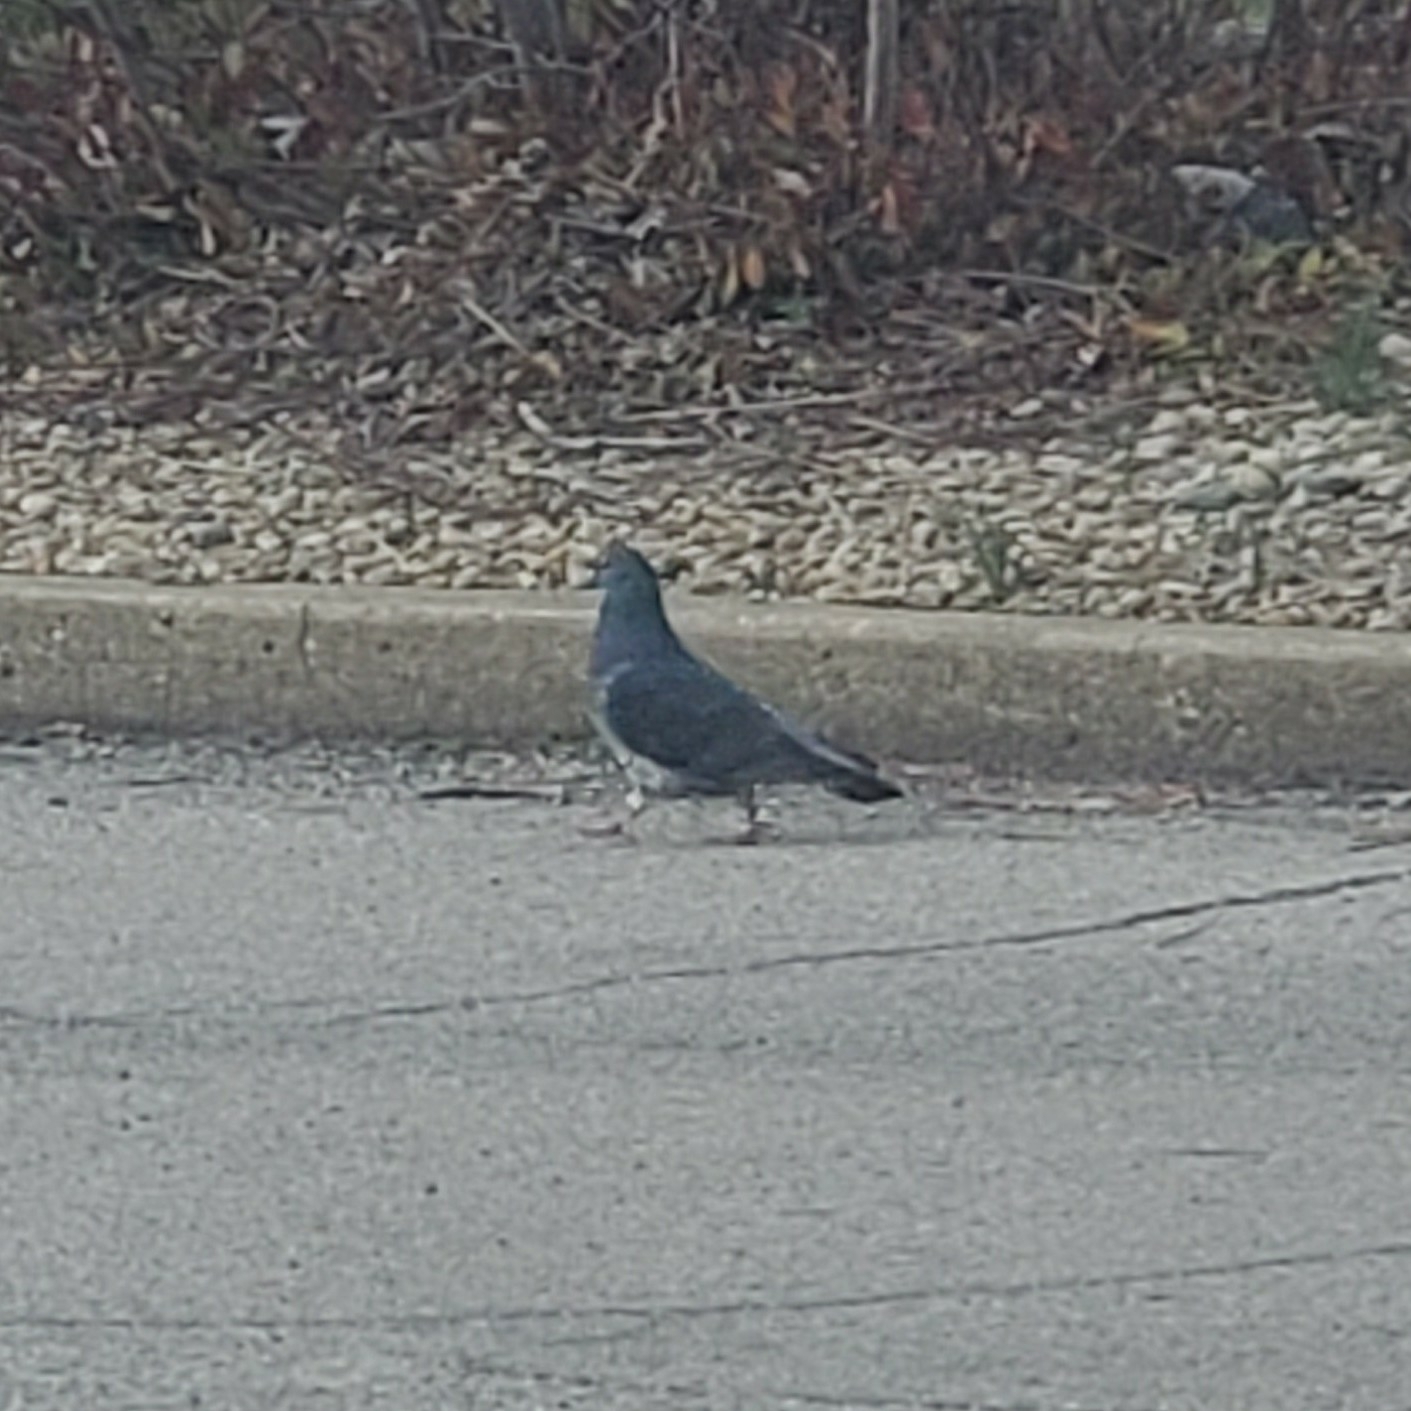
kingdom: Animalia
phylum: Chordata
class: Aves
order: Columbiformes
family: Columbidae
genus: Columba
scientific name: Columba livia
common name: Rock pigeon
